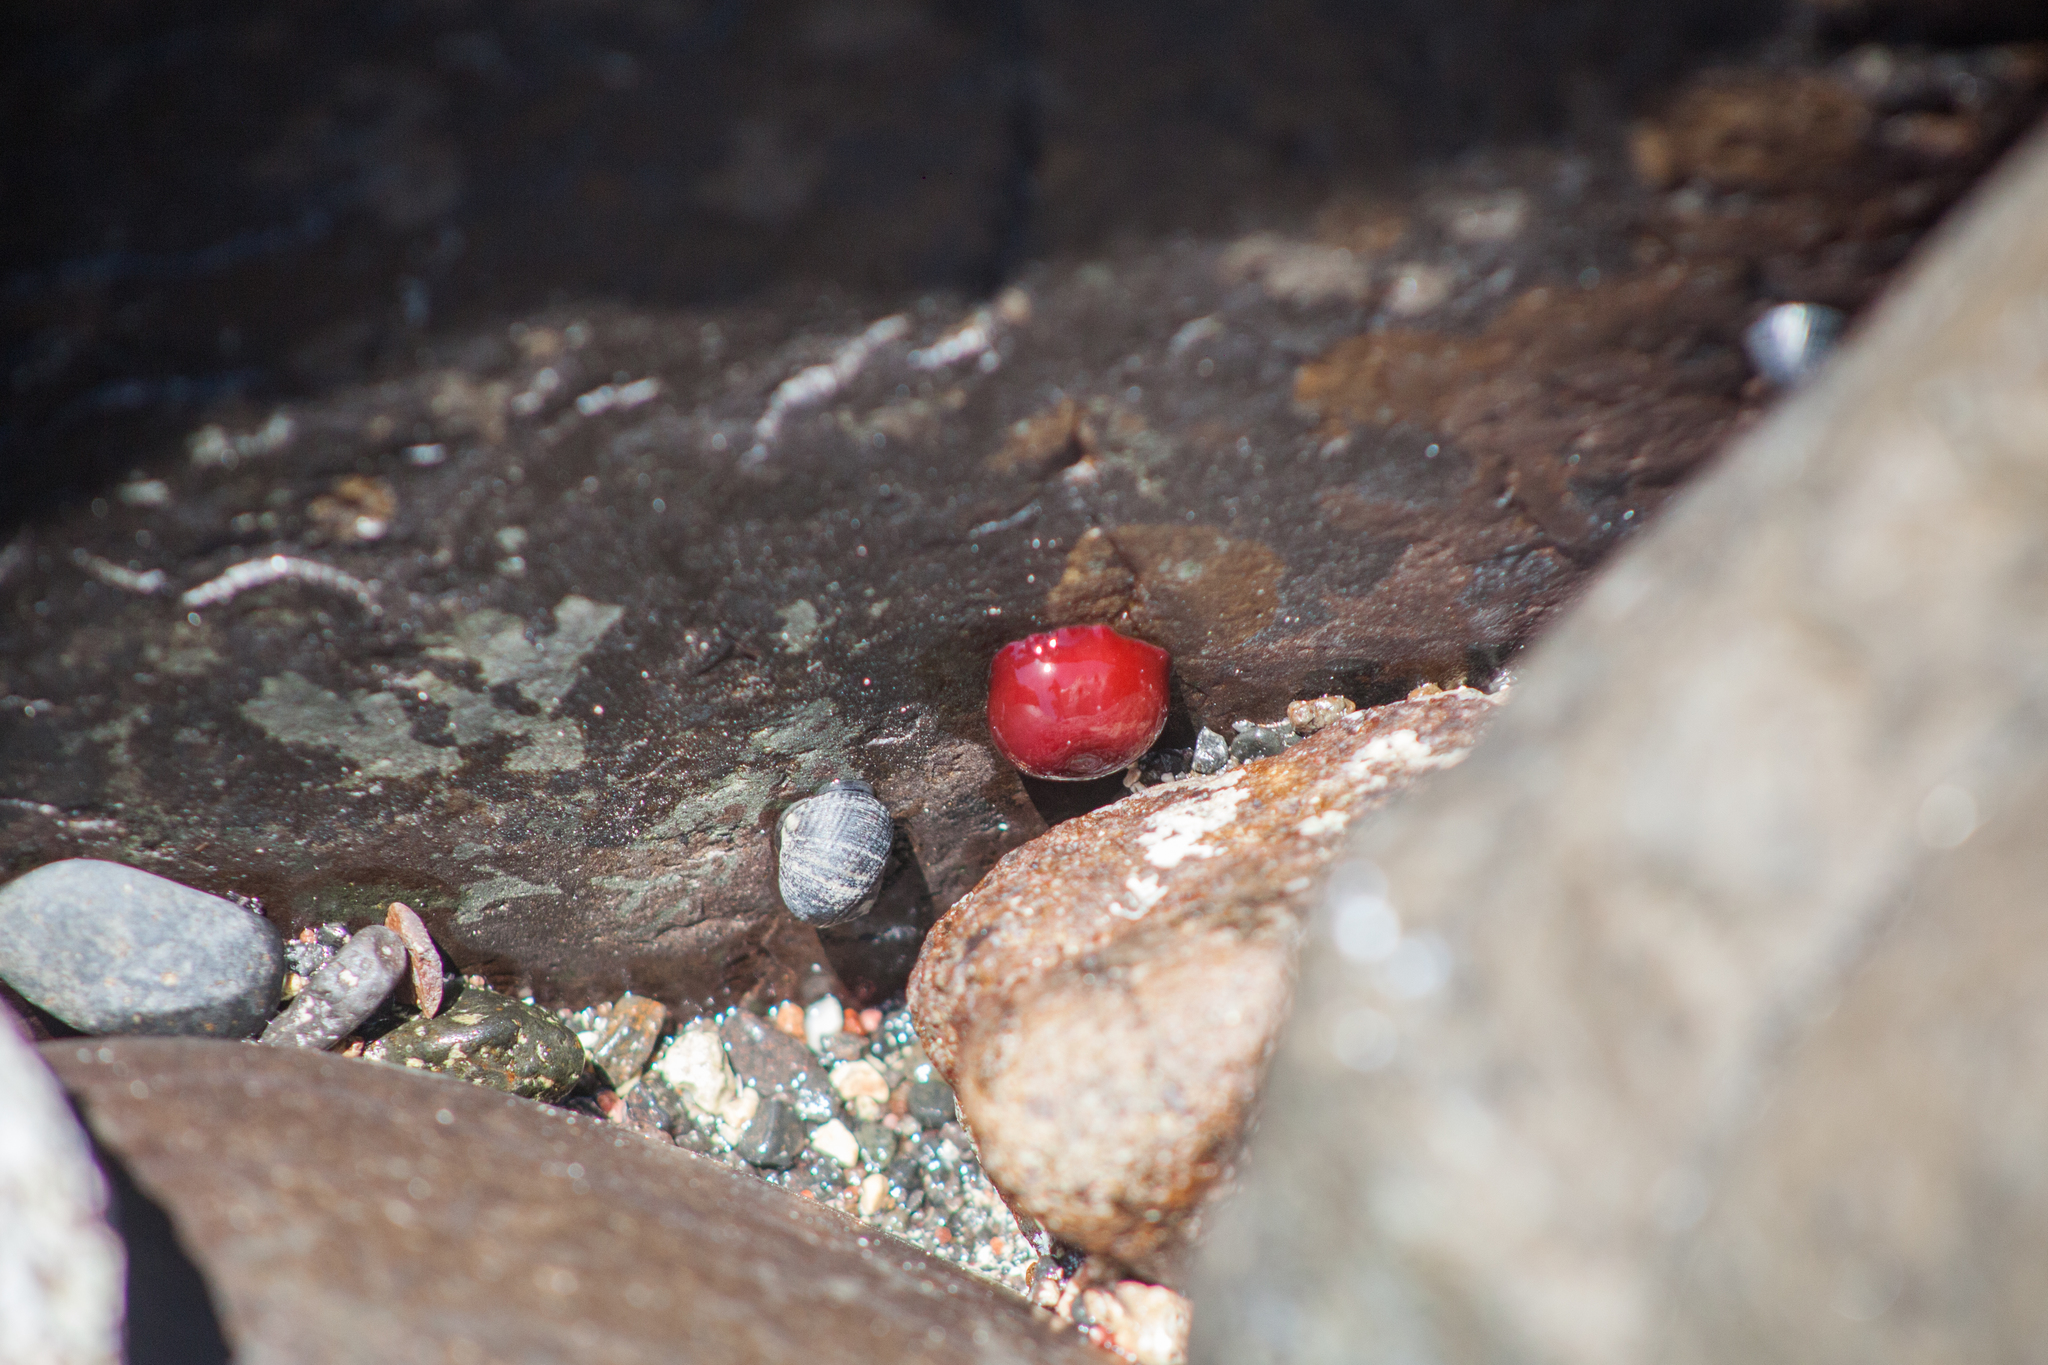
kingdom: Animalia
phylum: Cnidaria
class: Anthozoa
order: Actiniaria
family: Actiniidae
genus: Actinia
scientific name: Actinia bermudensis
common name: Maroon anemone
